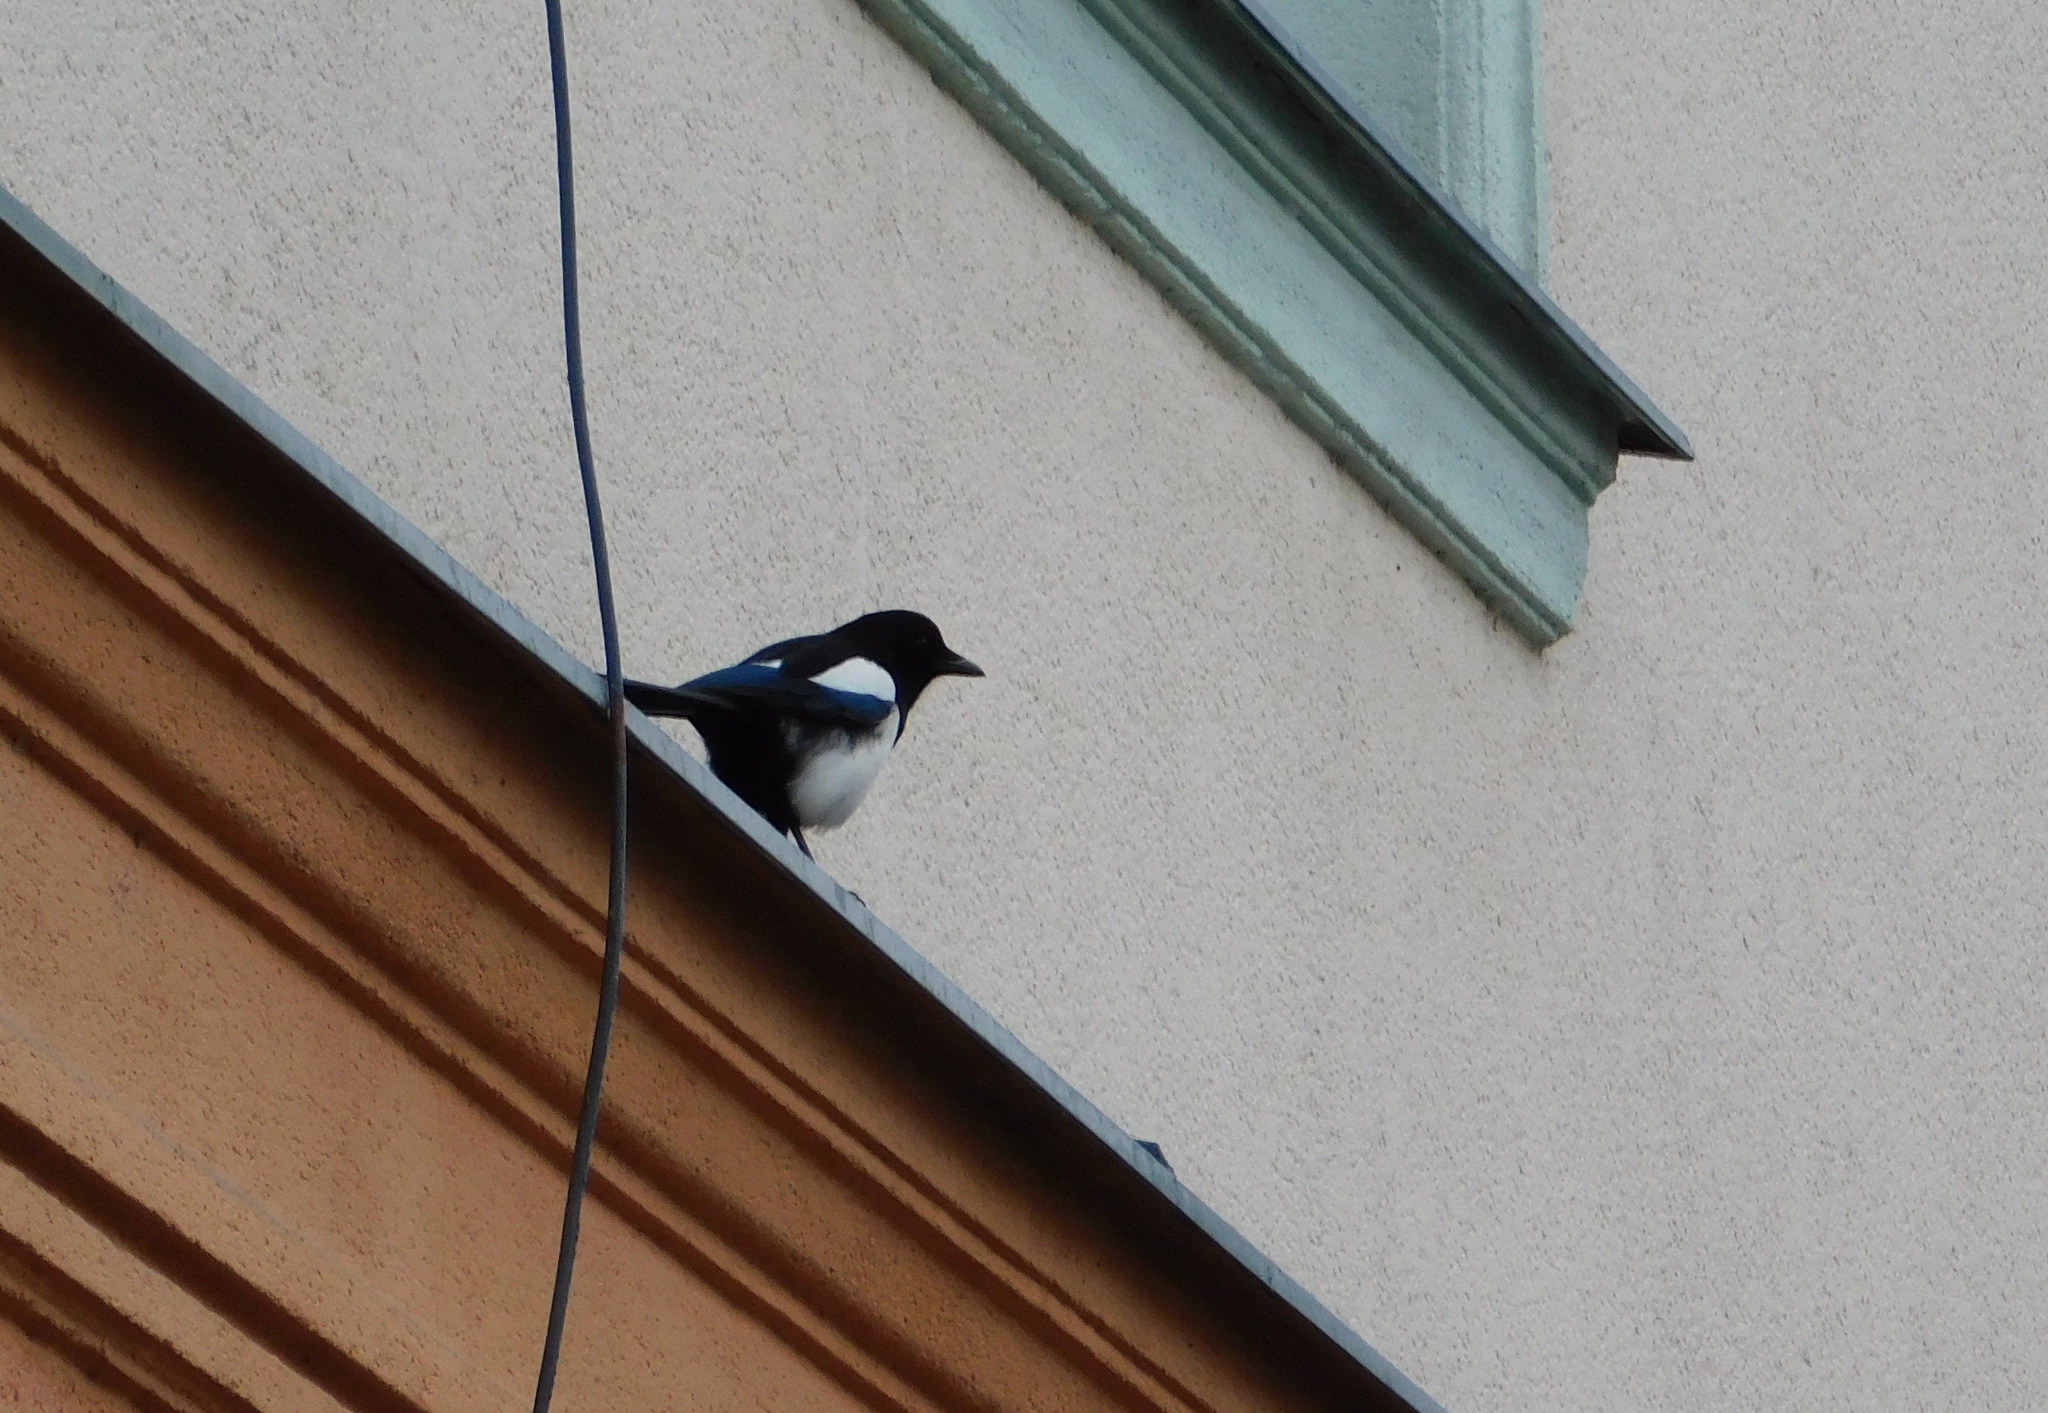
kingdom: Animalia
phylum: Chordata
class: Aves
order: Passeriformes
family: Corvidae
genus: Pica
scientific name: Pica pica
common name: Eurasian magpie
